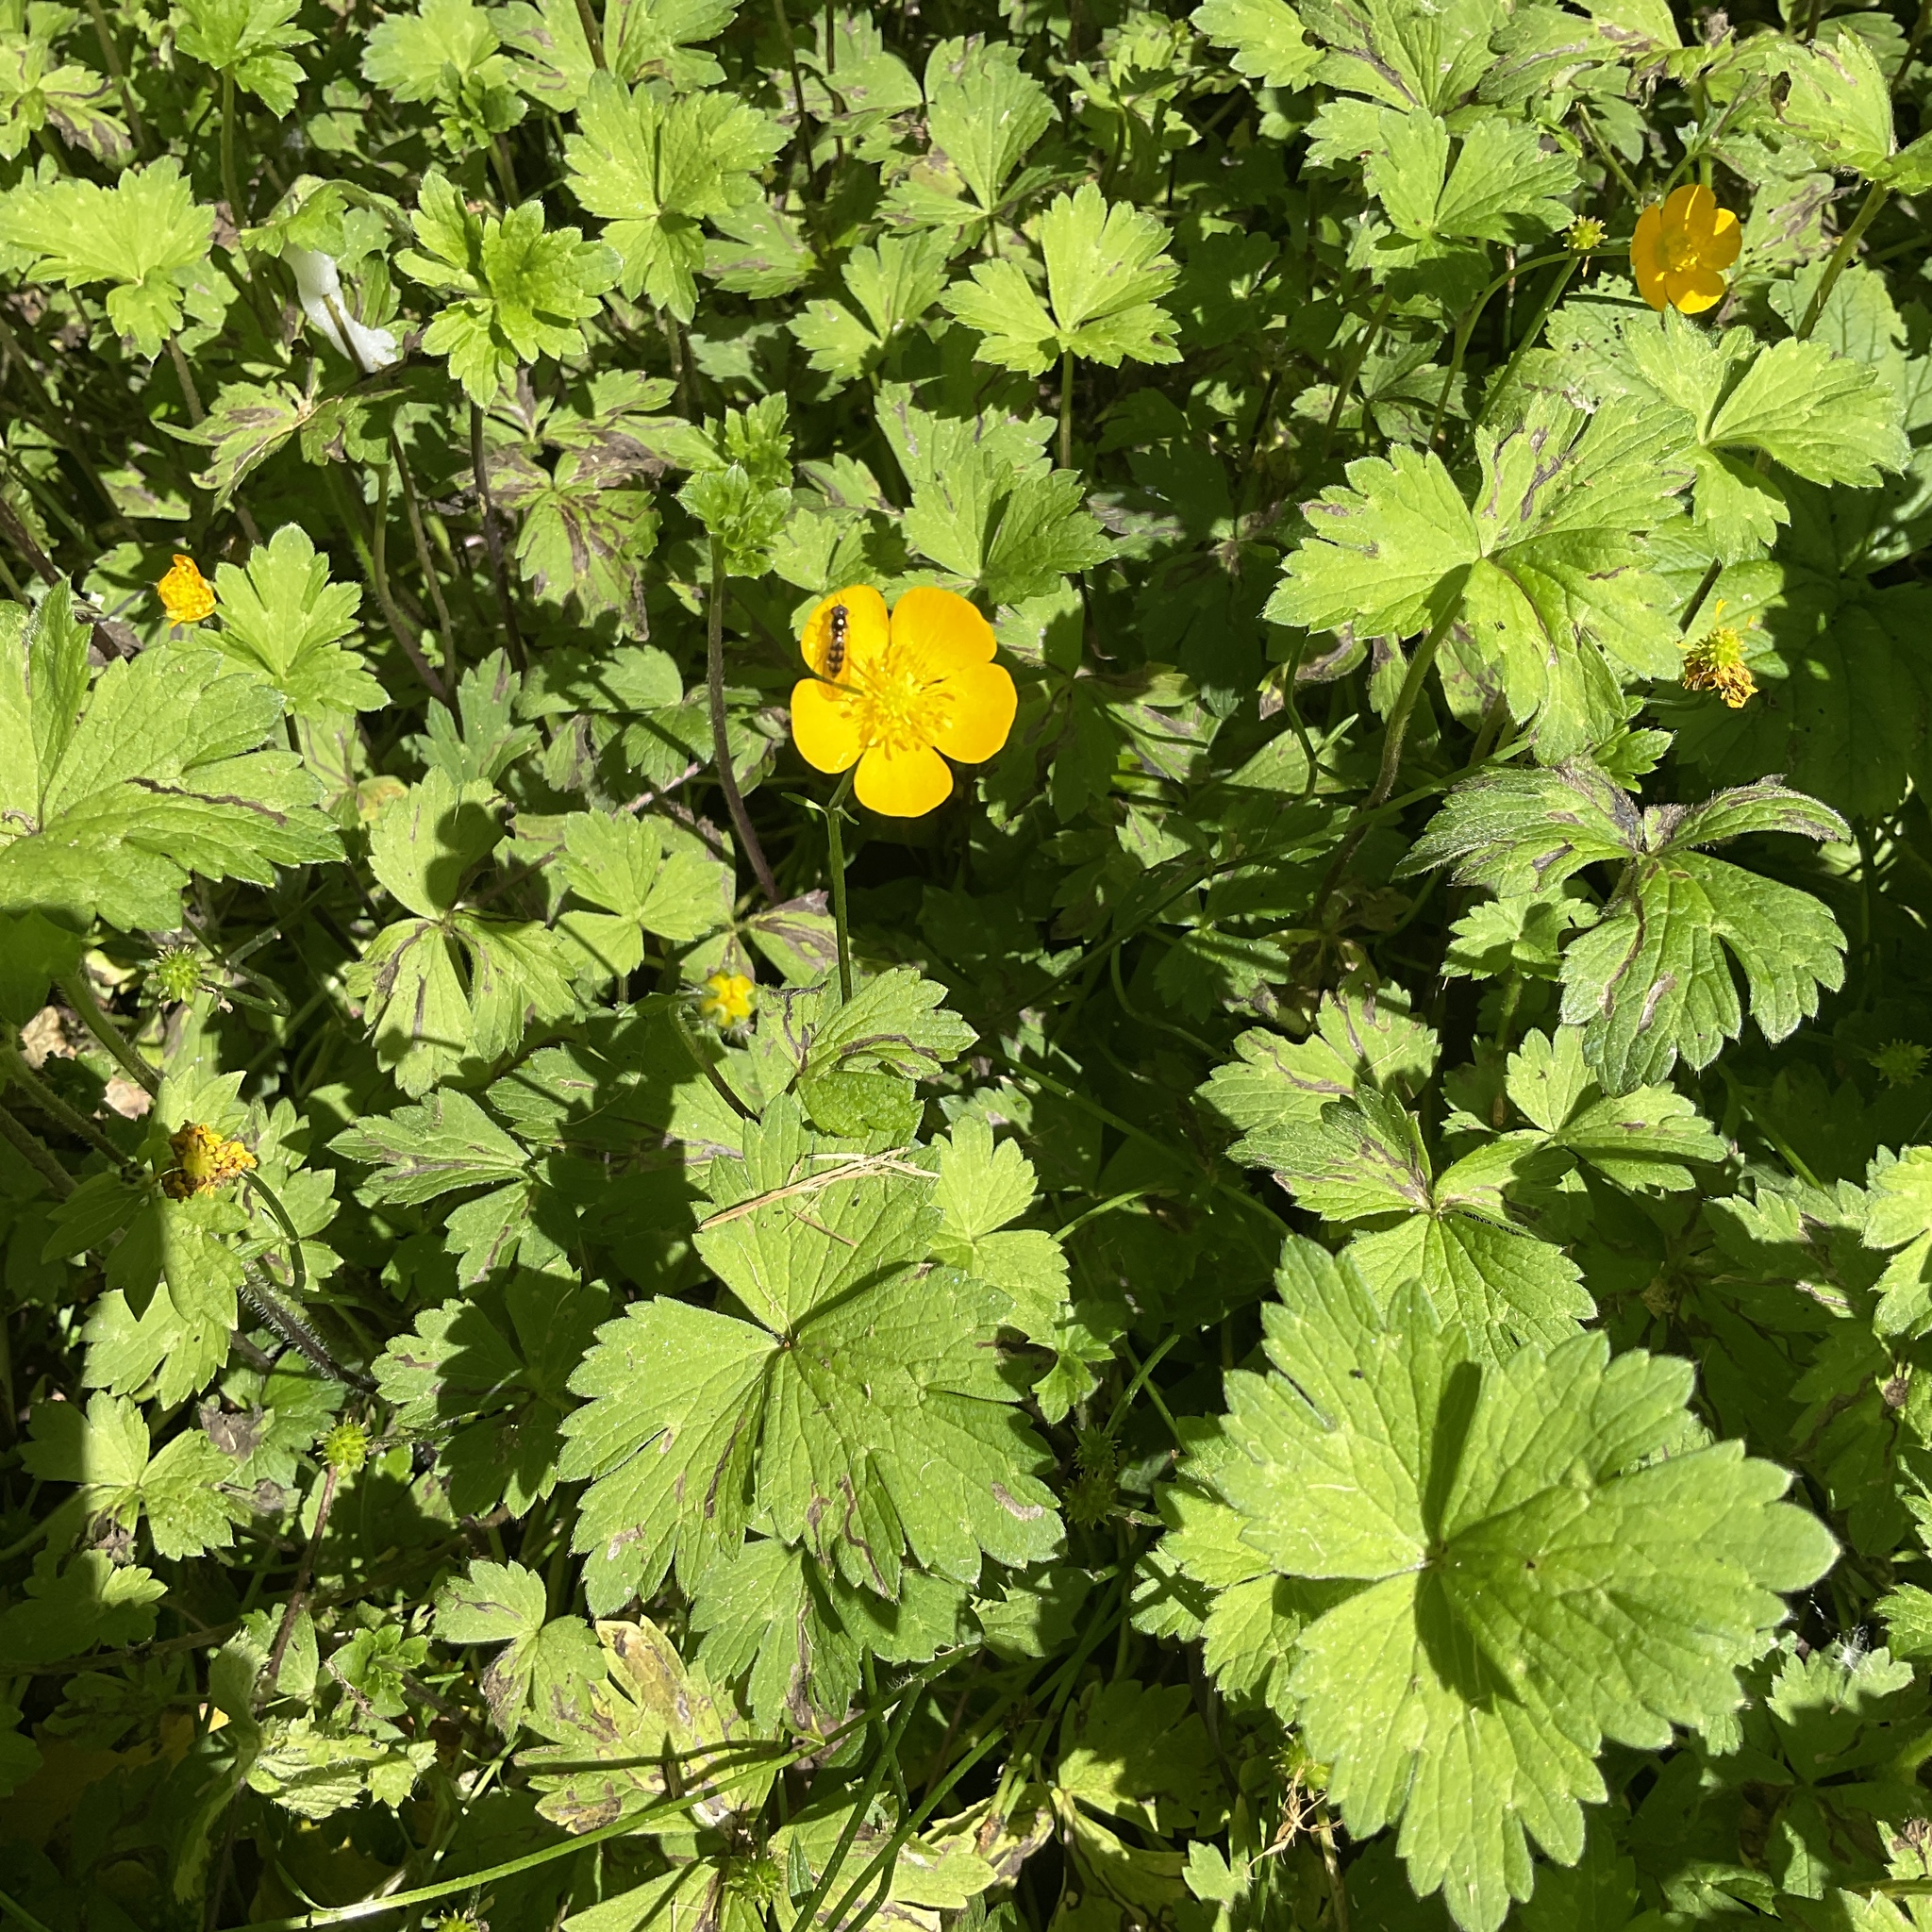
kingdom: Plantae
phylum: Tracheophyta
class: Magnoliopsida
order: Ranunculales
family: Ranunculaceae
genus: Ranunculus
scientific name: Ranunculus repens
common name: Creeping buttercup
